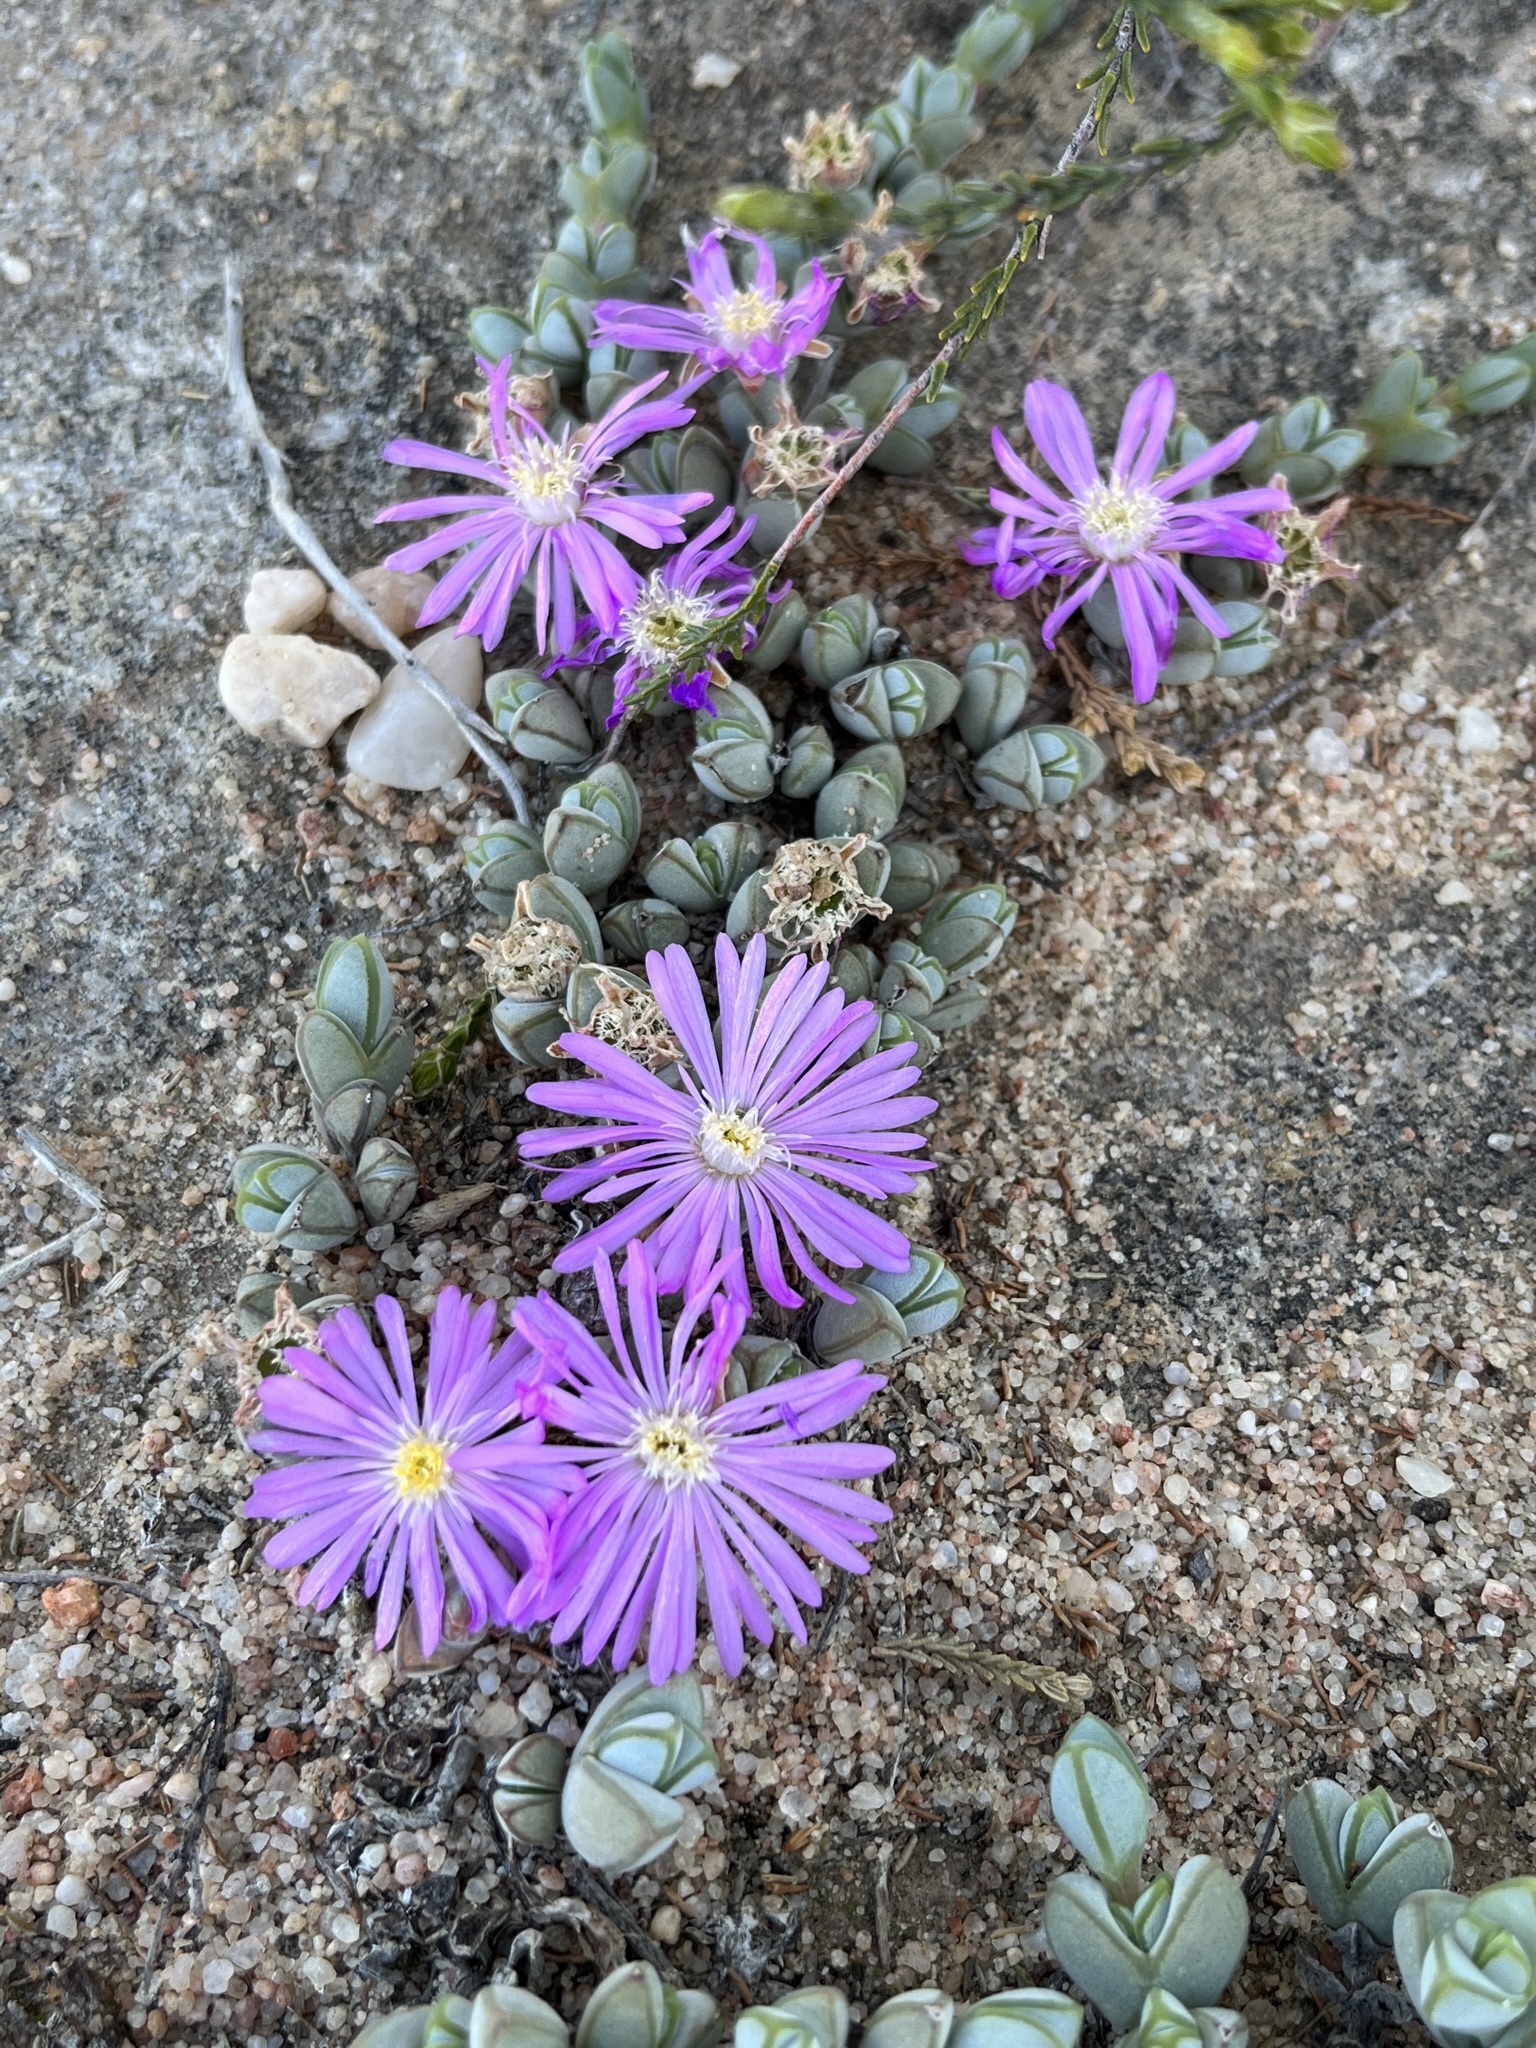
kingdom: Plantae
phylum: Tracheophyta
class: Magnoliopsida
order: Caryophyllales
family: Aizoaceae
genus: Braunsia
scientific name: Braunsia maximiliani
